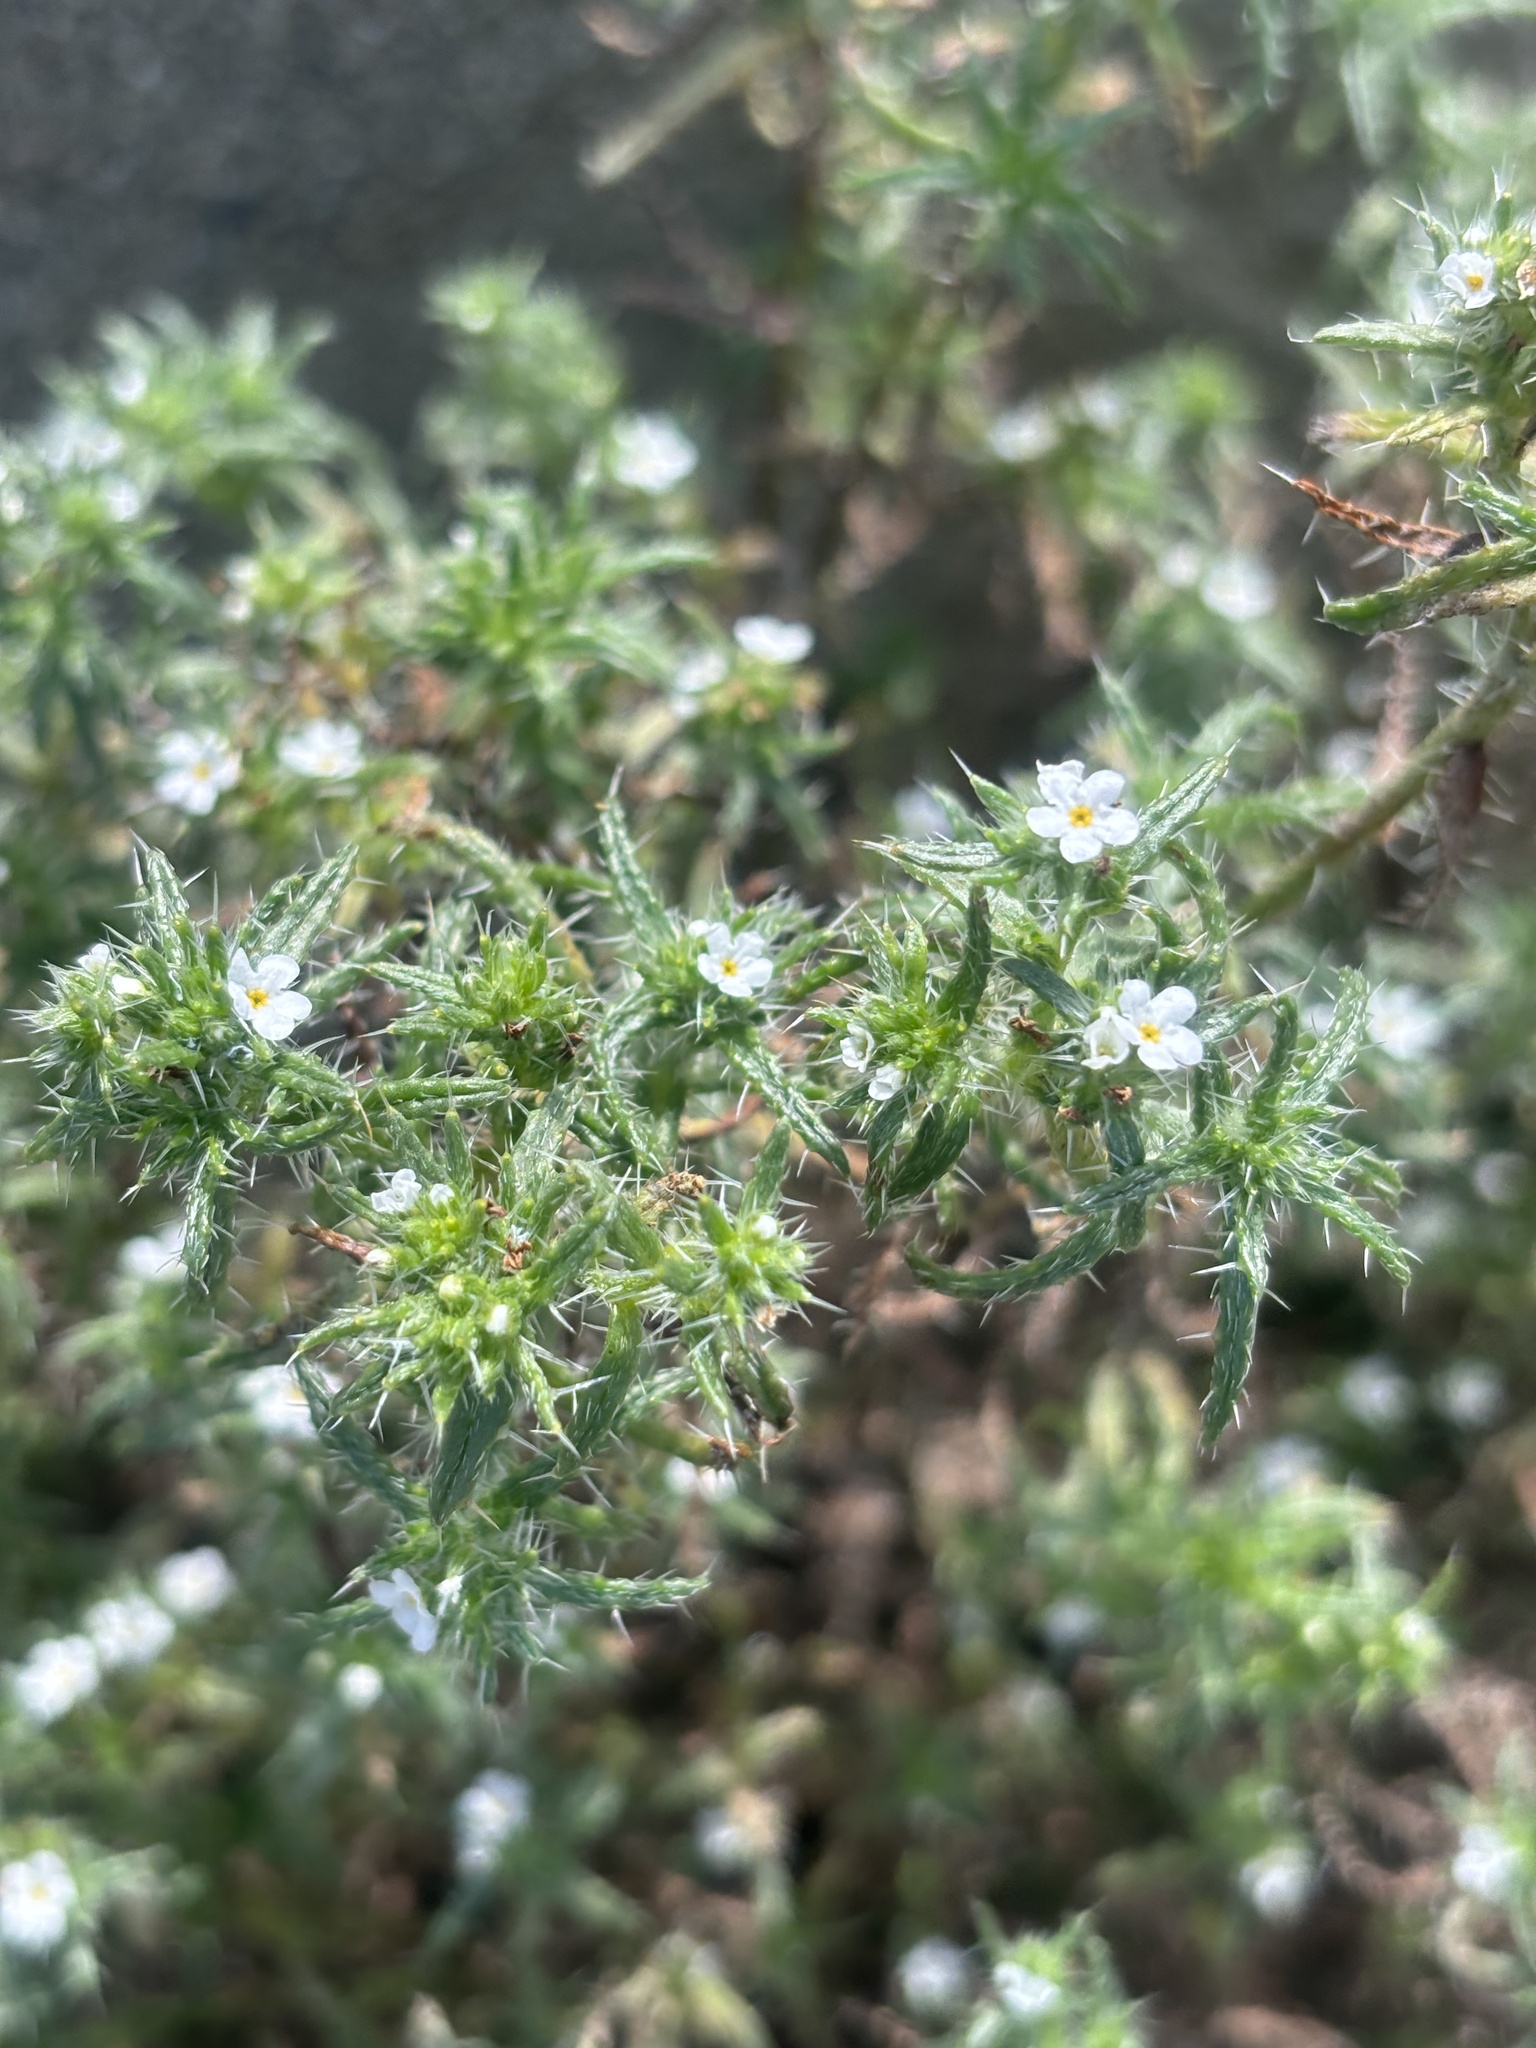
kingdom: Plantae
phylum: Tracheophyta
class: Magnoliopsida
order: Boraginales
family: Boraginaceae
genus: Cryptantha
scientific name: Cryptantha maritima
